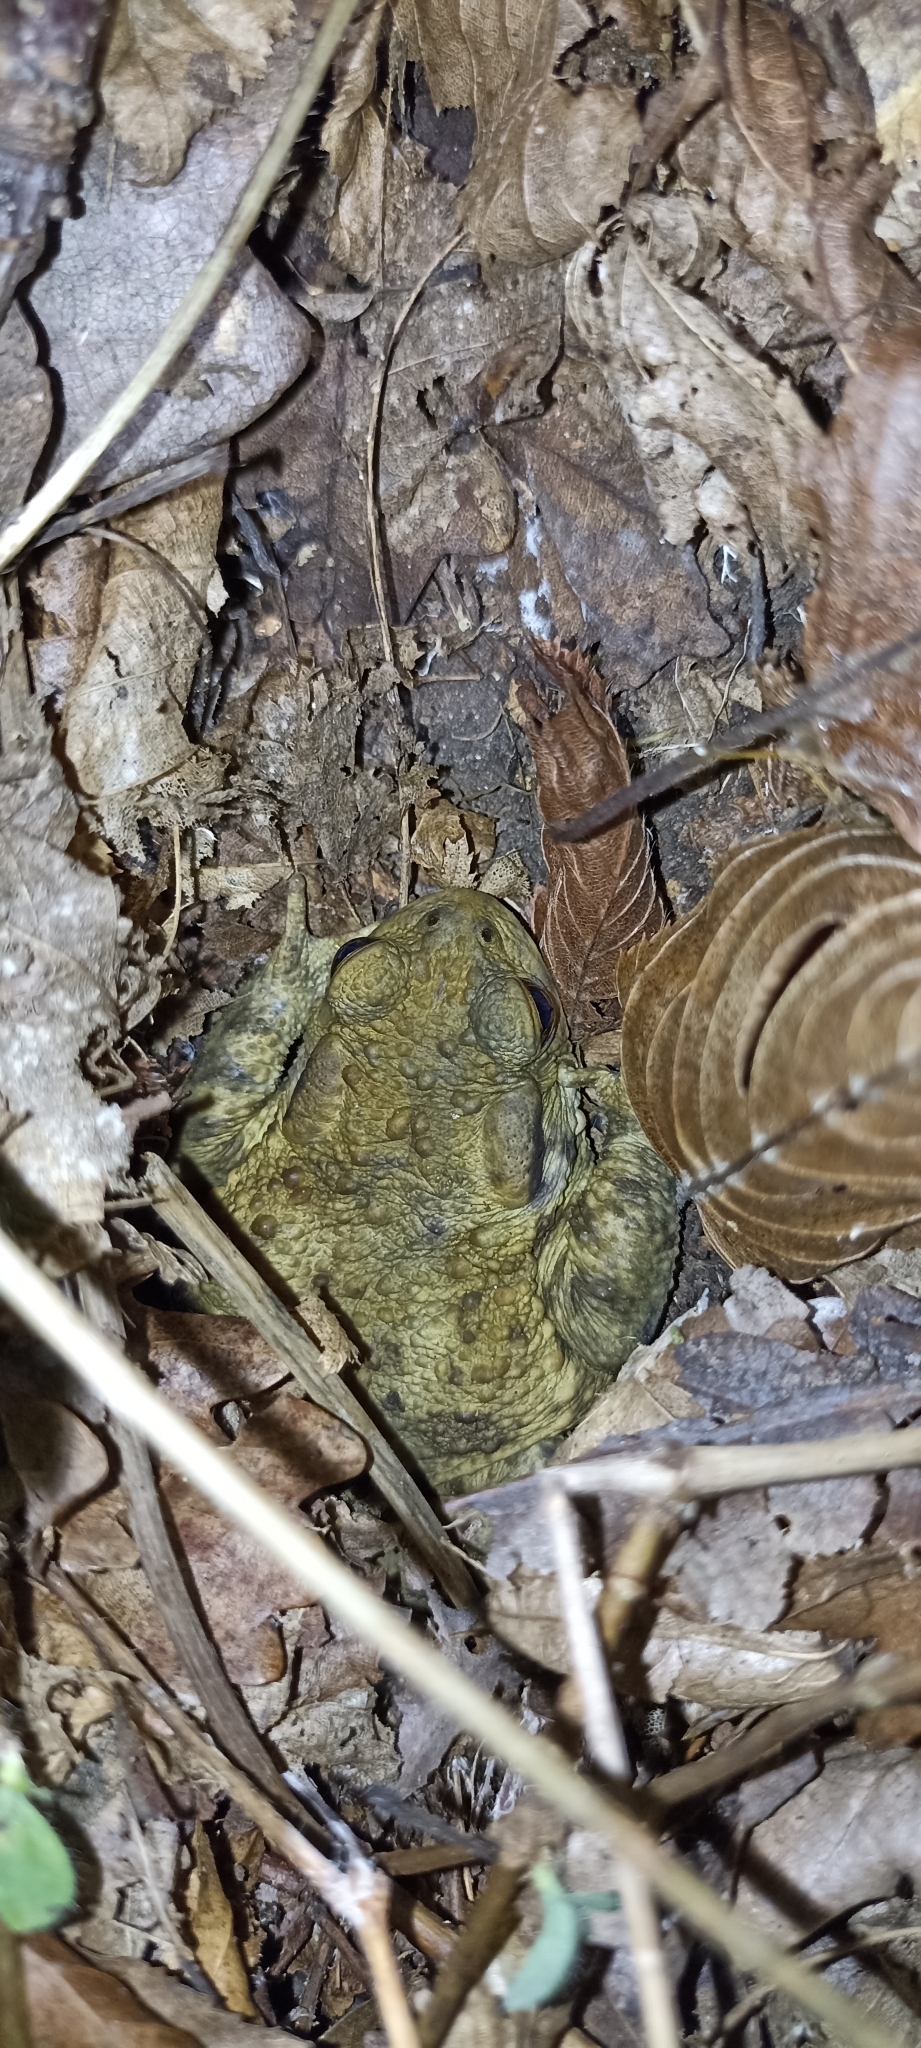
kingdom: Animalia
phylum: Chordata
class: Amphibia
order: Anura
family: Bufonidae
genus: Bufo
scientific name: Bufo bufo
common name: Common toad
